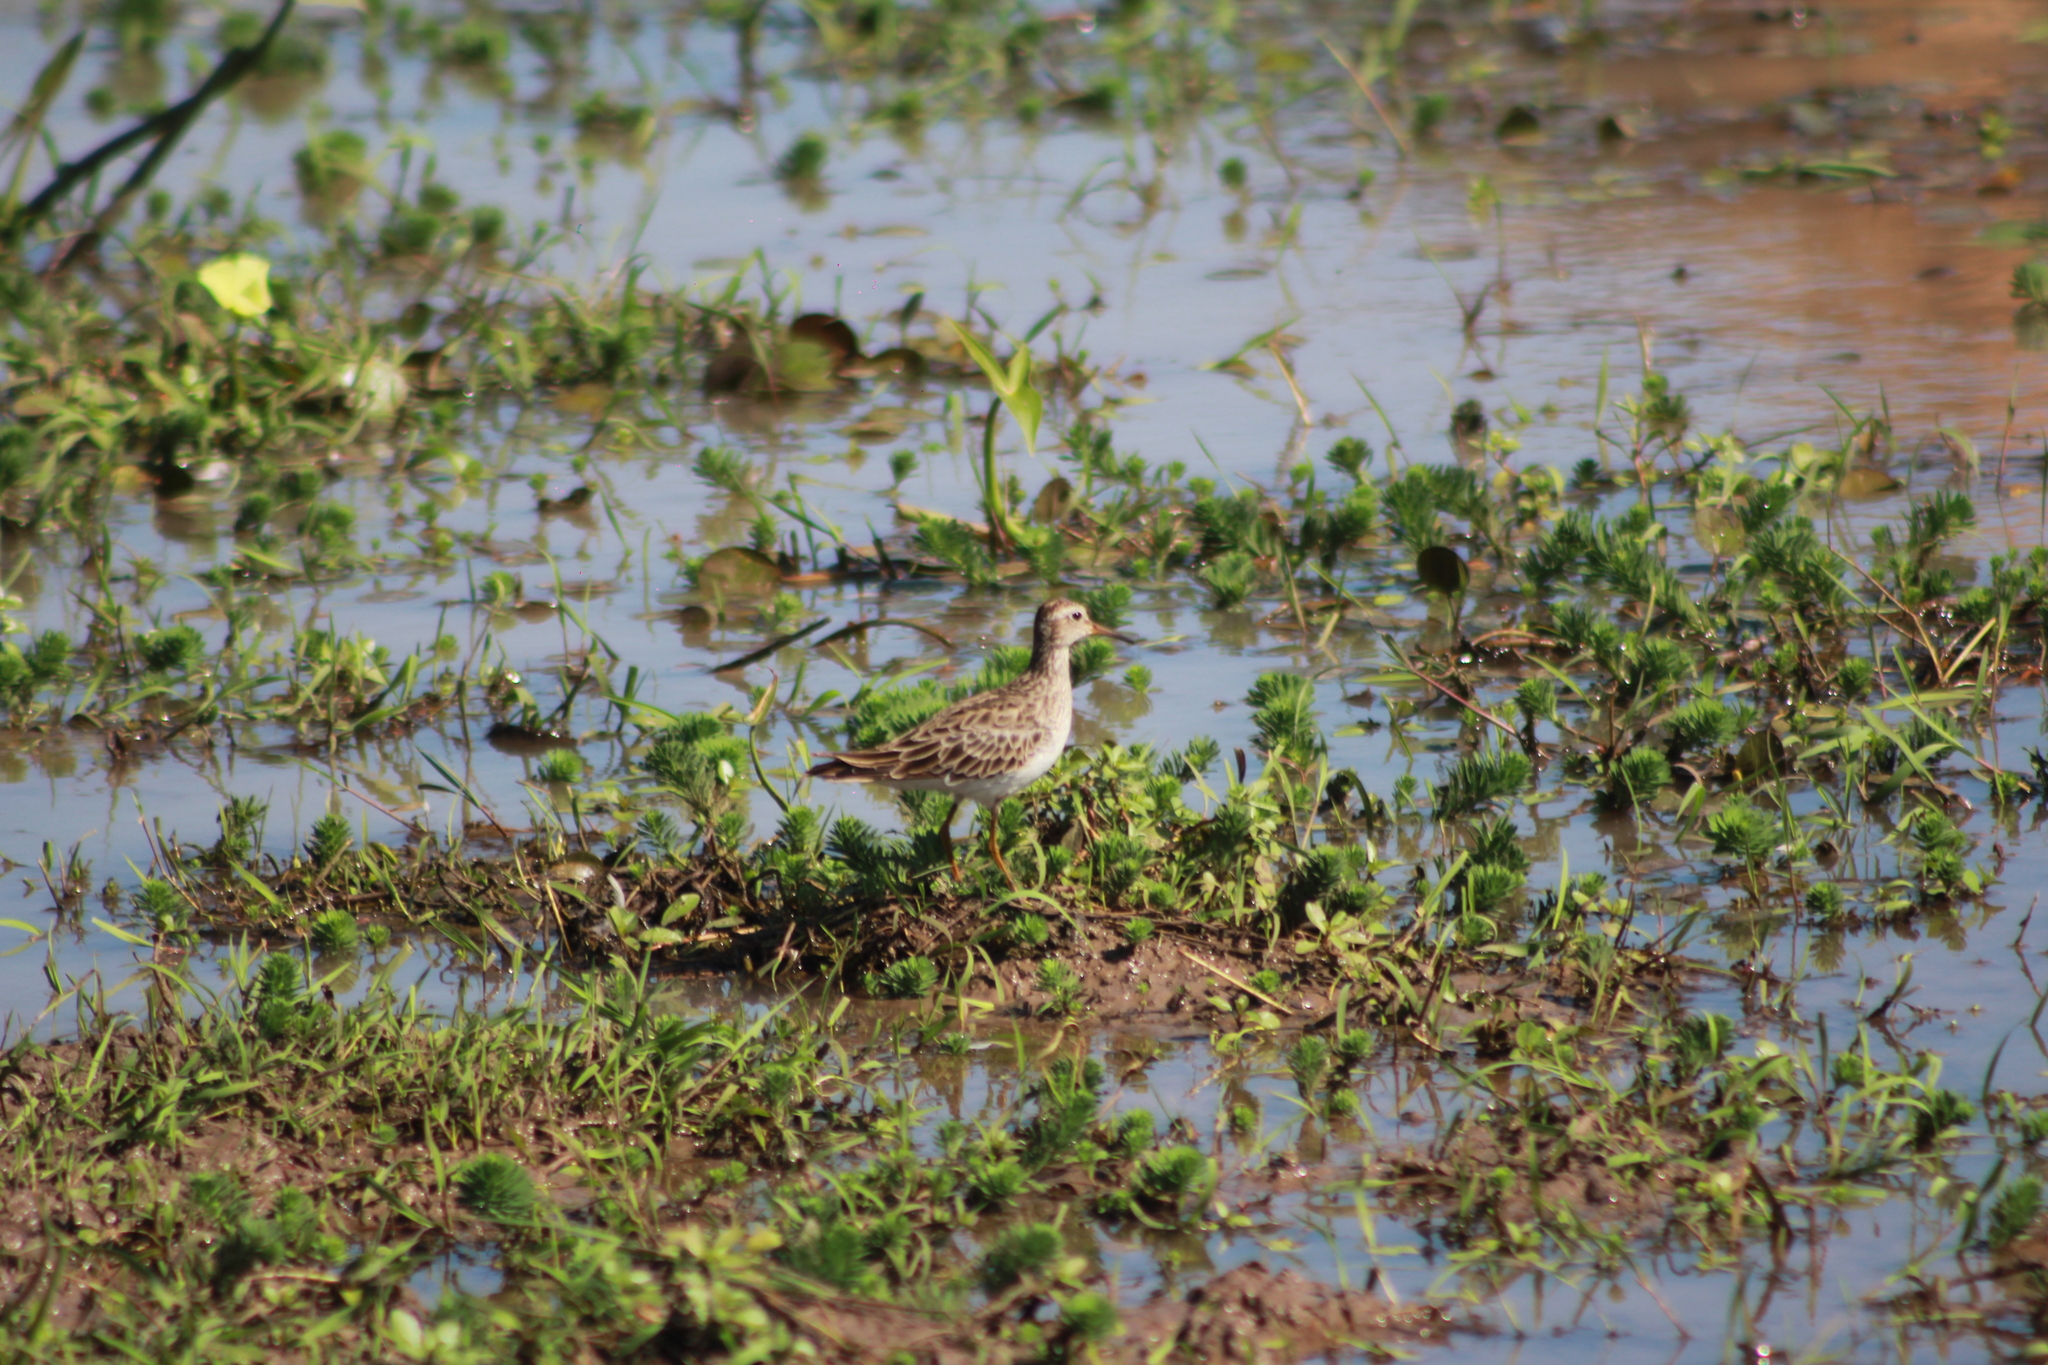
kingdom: Animalia
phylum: Chordata
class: Aves
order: Charadriiformes
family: Scolopacidae
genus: Calidris
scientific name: Calidris melanotos
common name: Pectoral sandpiper
